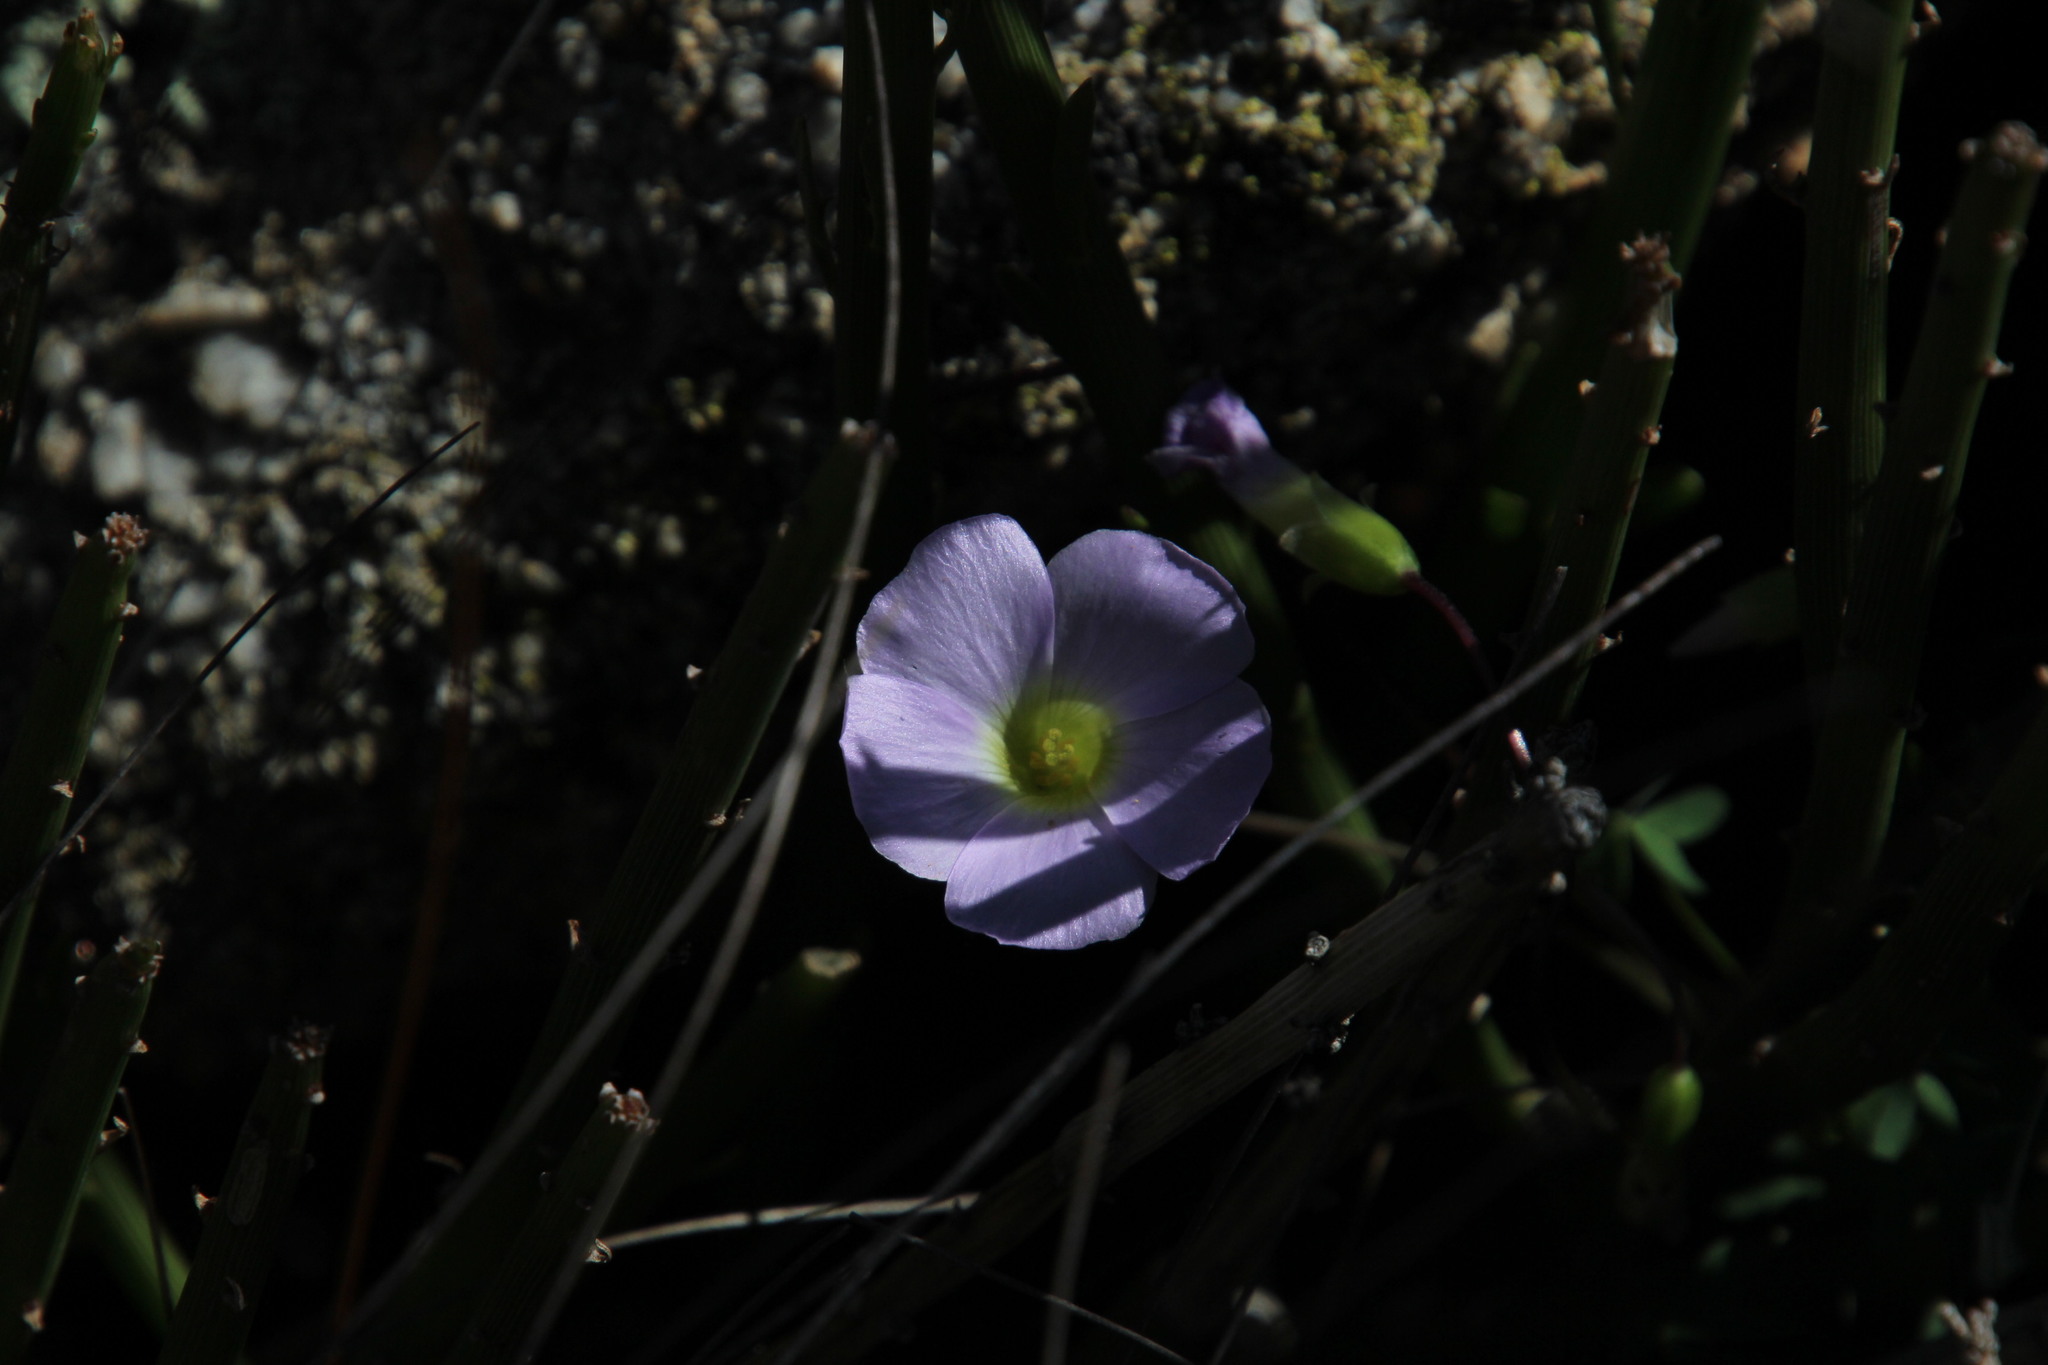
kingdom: Plantae
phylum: Tracheophyta
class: Magnoliopsida
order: Oxalidales
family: Oxalidaceae
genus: Oxalis
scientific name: Oxalis comosa
